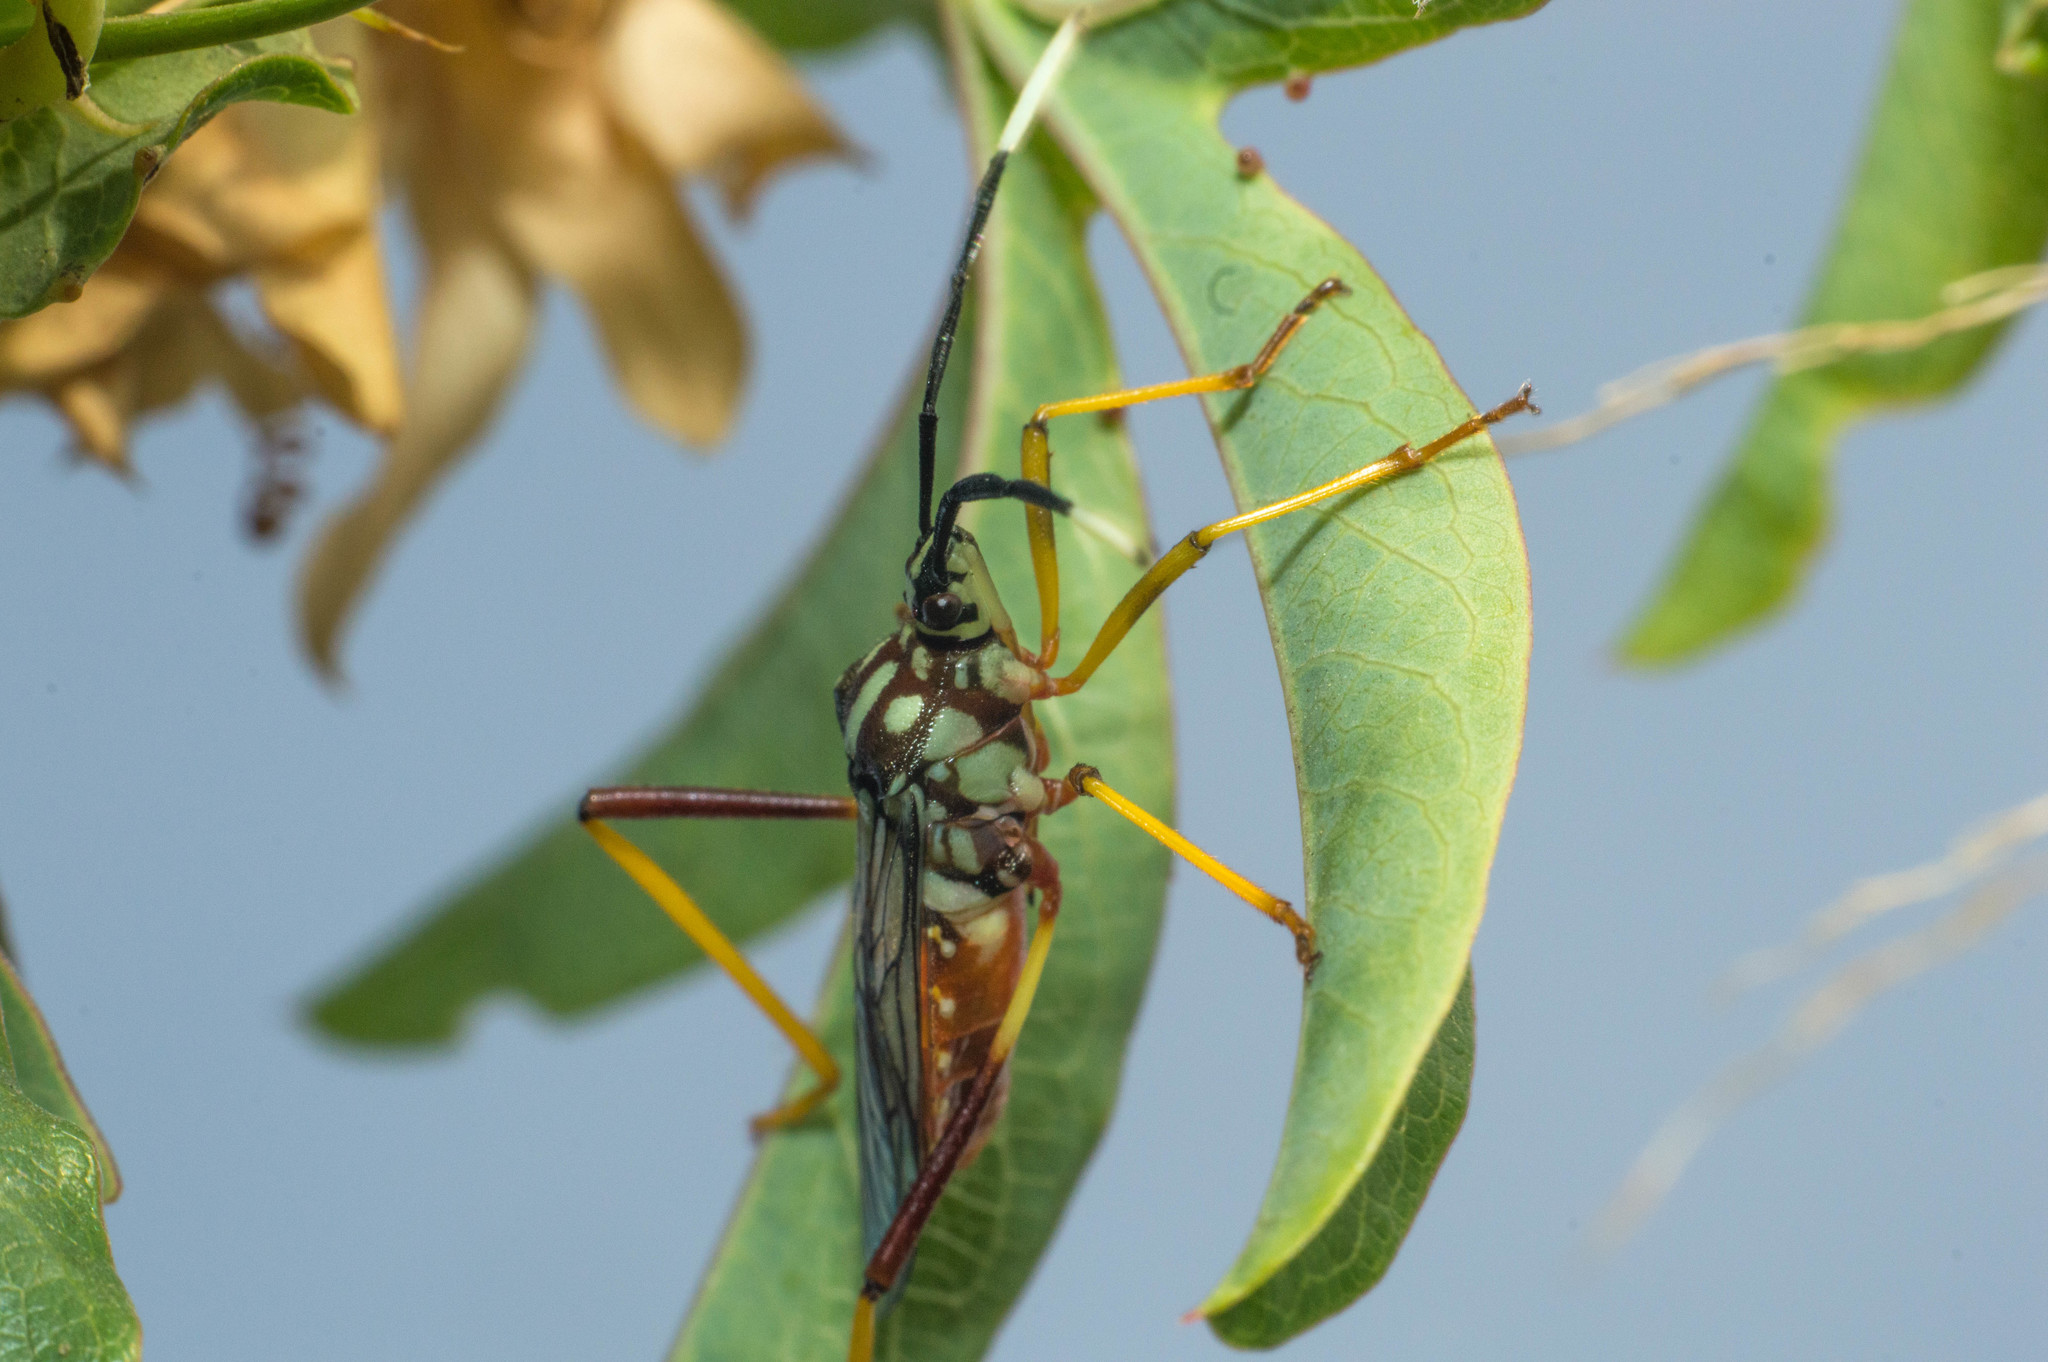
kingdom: Animalia
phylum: Arthropoda
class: Insecta
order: Hemiptera
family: Coreidae
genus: Holhymenia
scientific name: Holhymenia histrio
